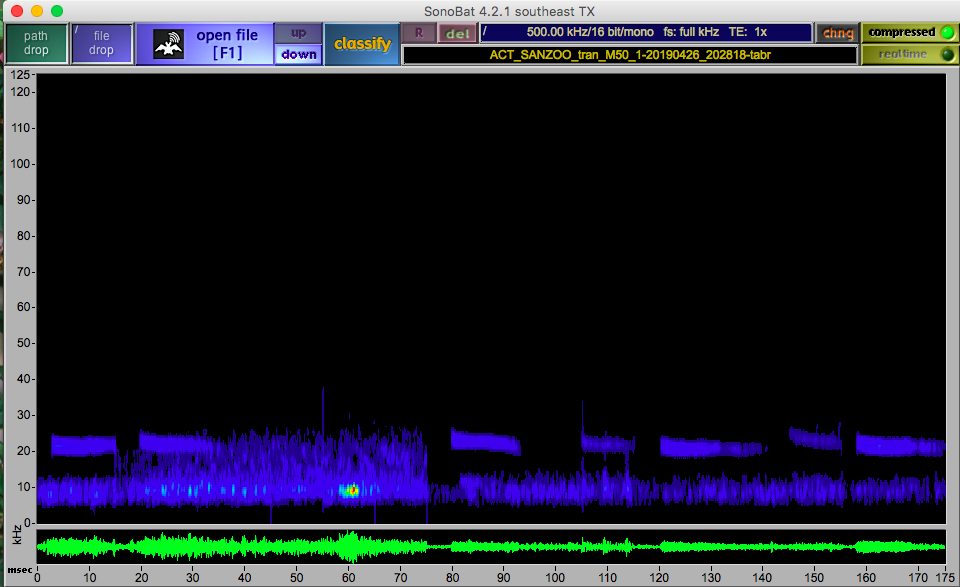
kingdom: Animalia
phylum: Chordata
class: Mammalia
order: Chiroptera
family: Molossidae
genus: Tadarida
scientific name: Tadarida brasiliensis
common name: Mexican free-tailed bat
